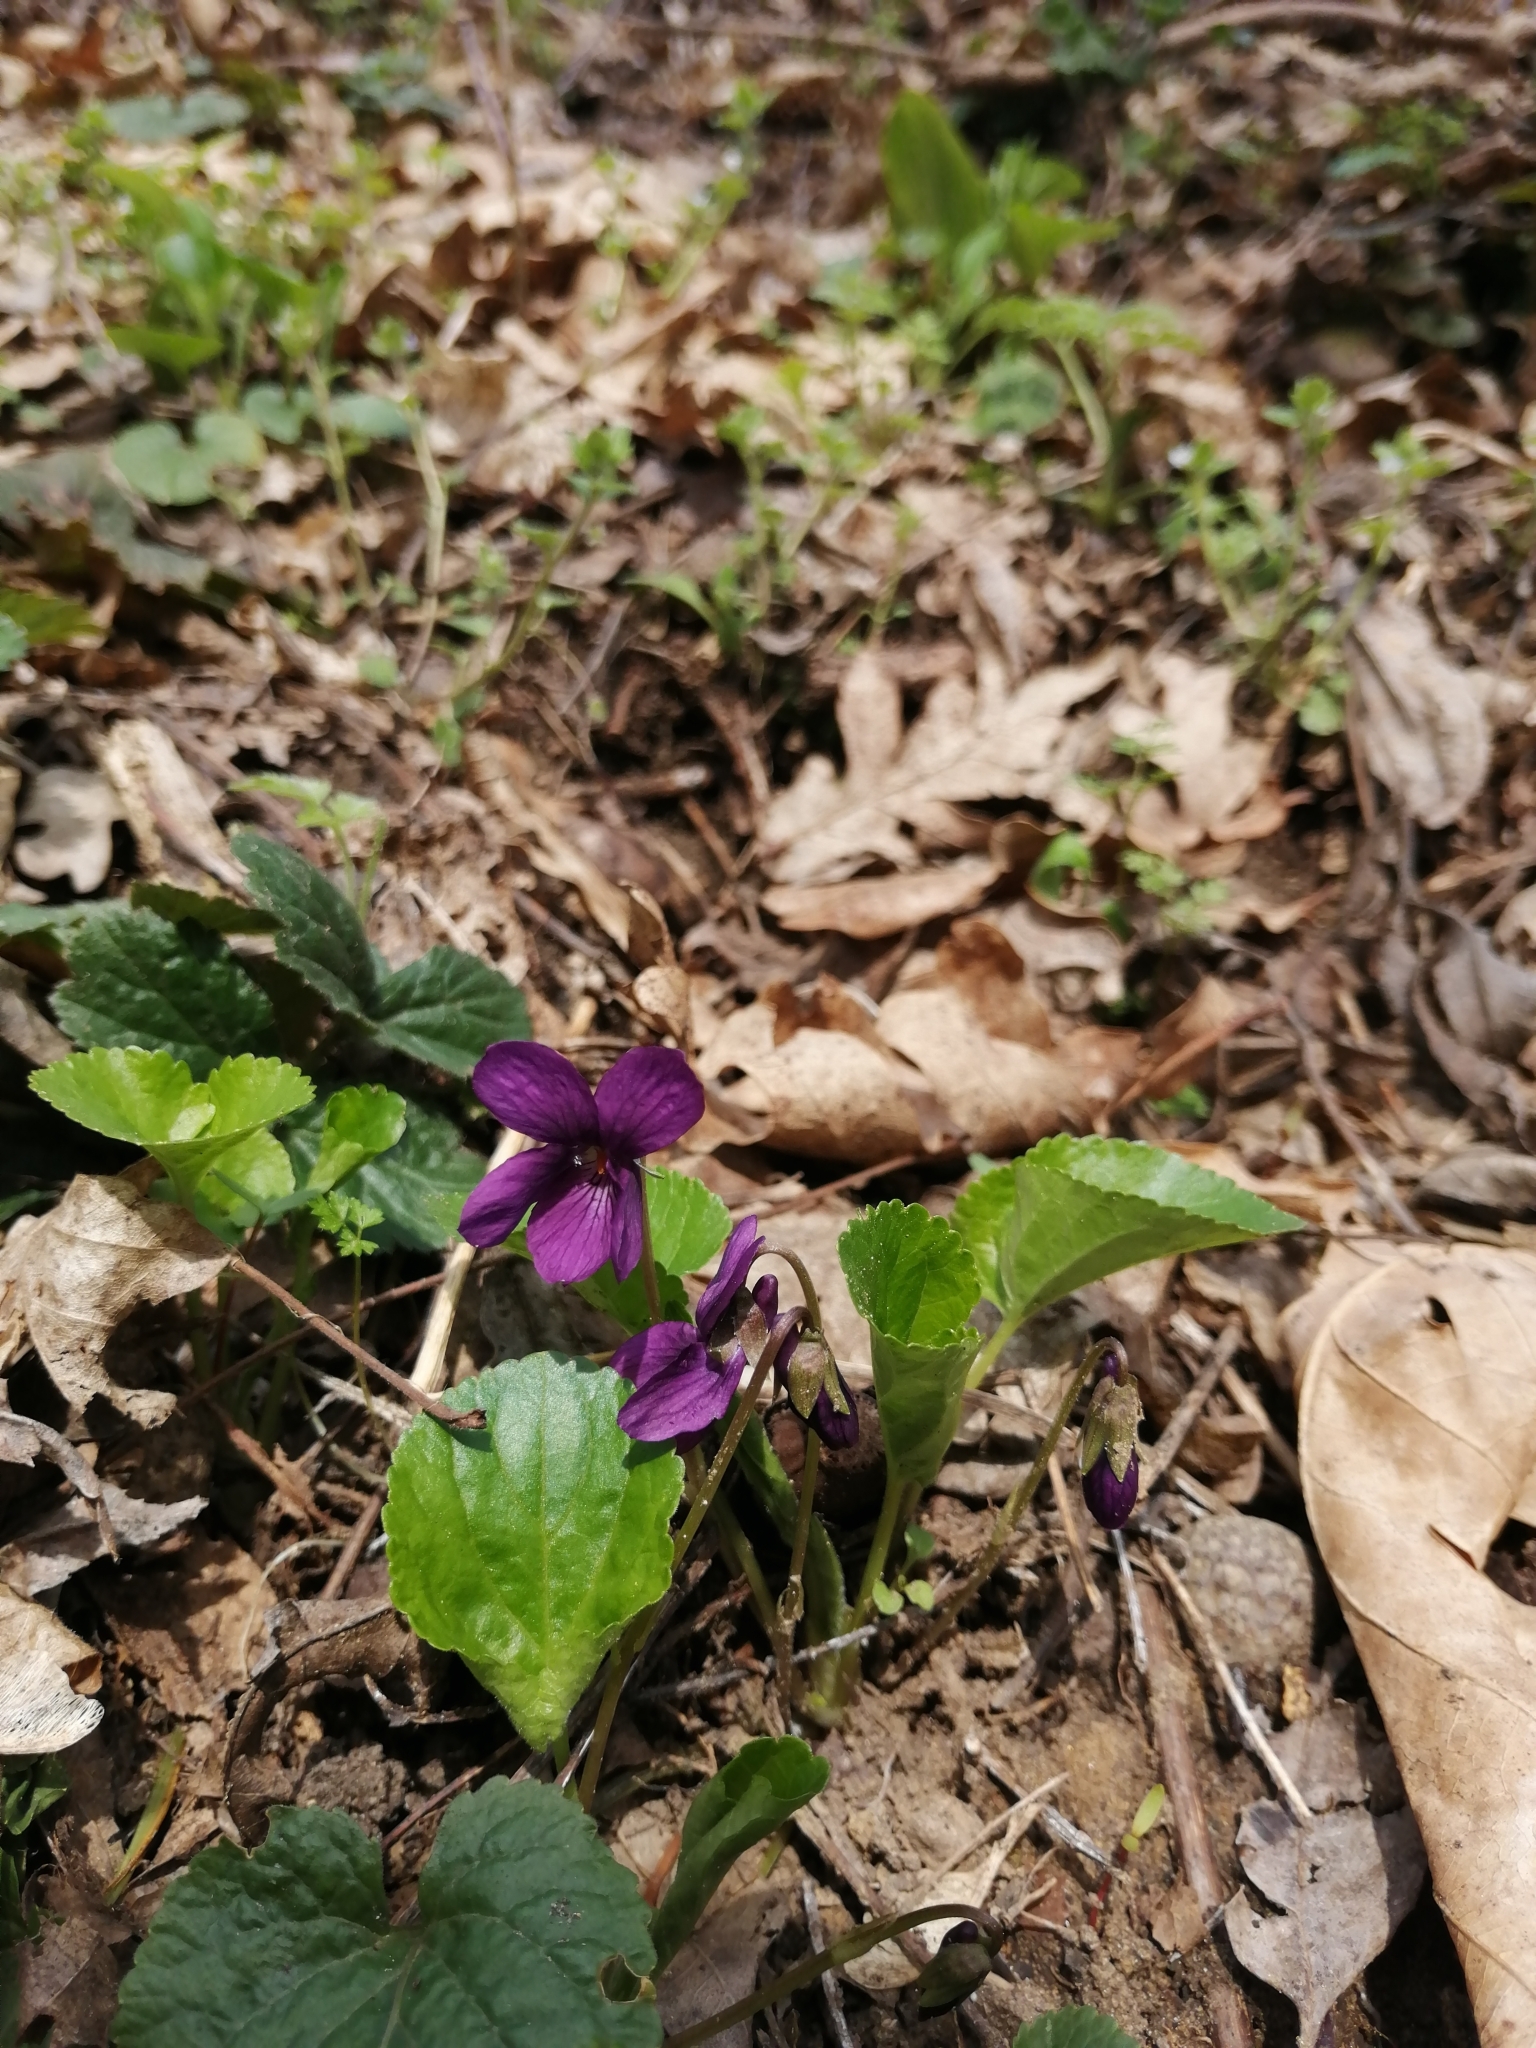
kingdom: Plantae
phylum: Tracheophyta
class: Magnoliopsida
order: Malpighiales
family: Violaceae
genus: Viola
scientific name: Viola odorata
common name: Sweet violet
